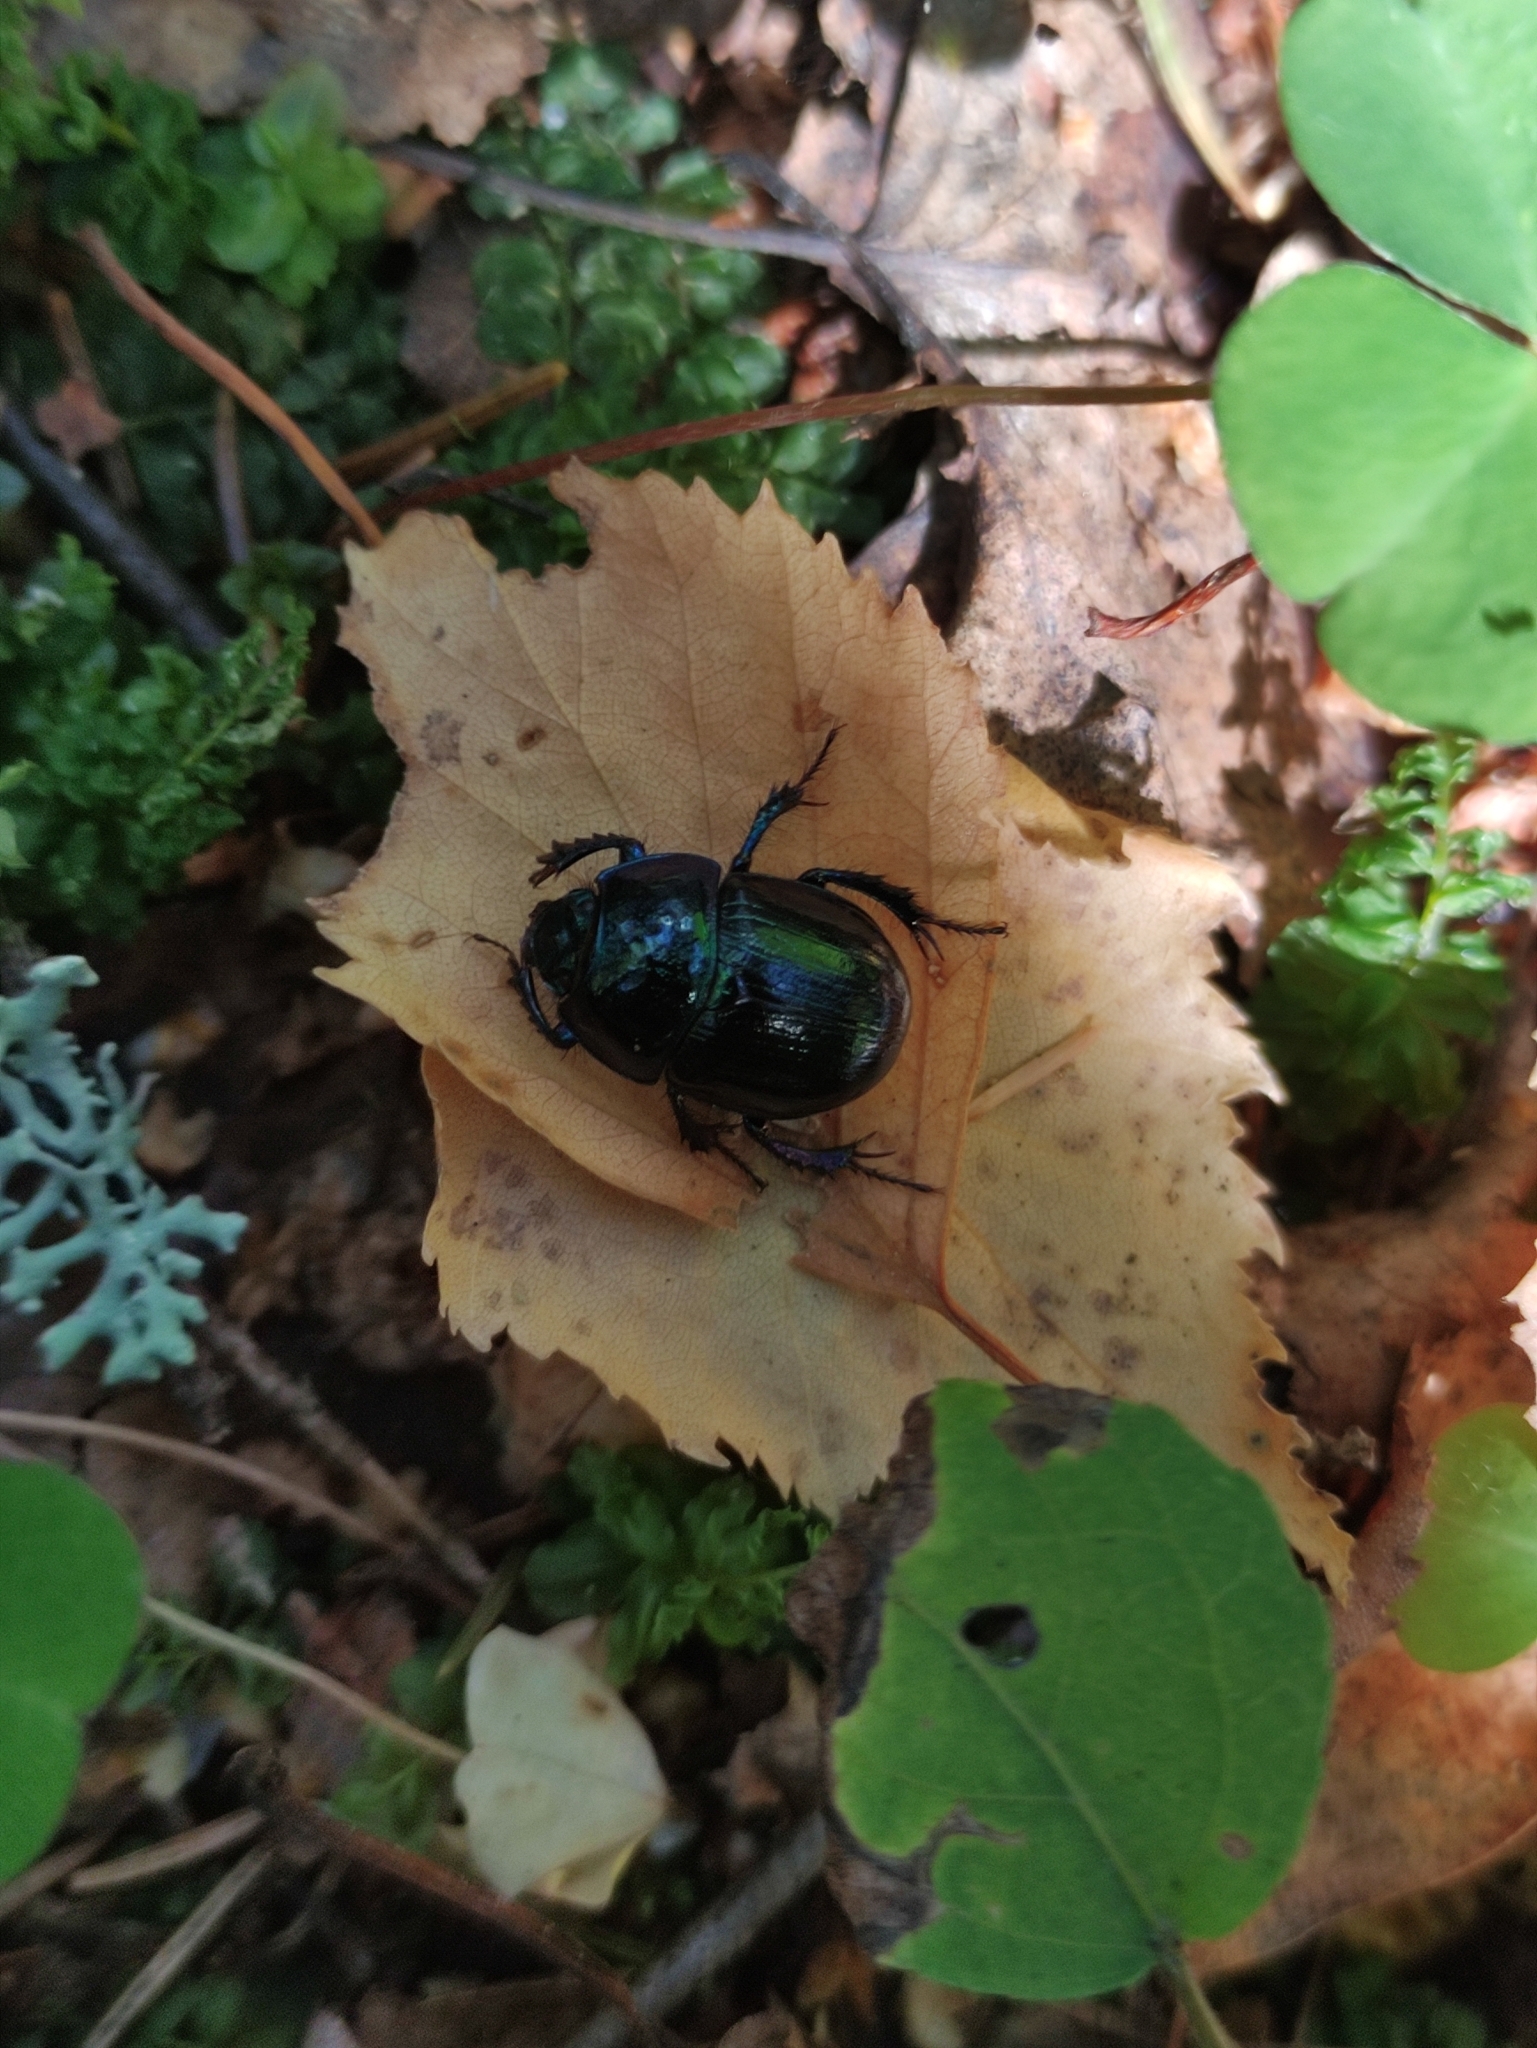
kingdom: Animalia
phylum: Arthropoda
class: Insecta
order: Coleoptera
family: Geotrupidae
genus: Anoplotrupes
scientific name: Anoplotrupes stercorosus
